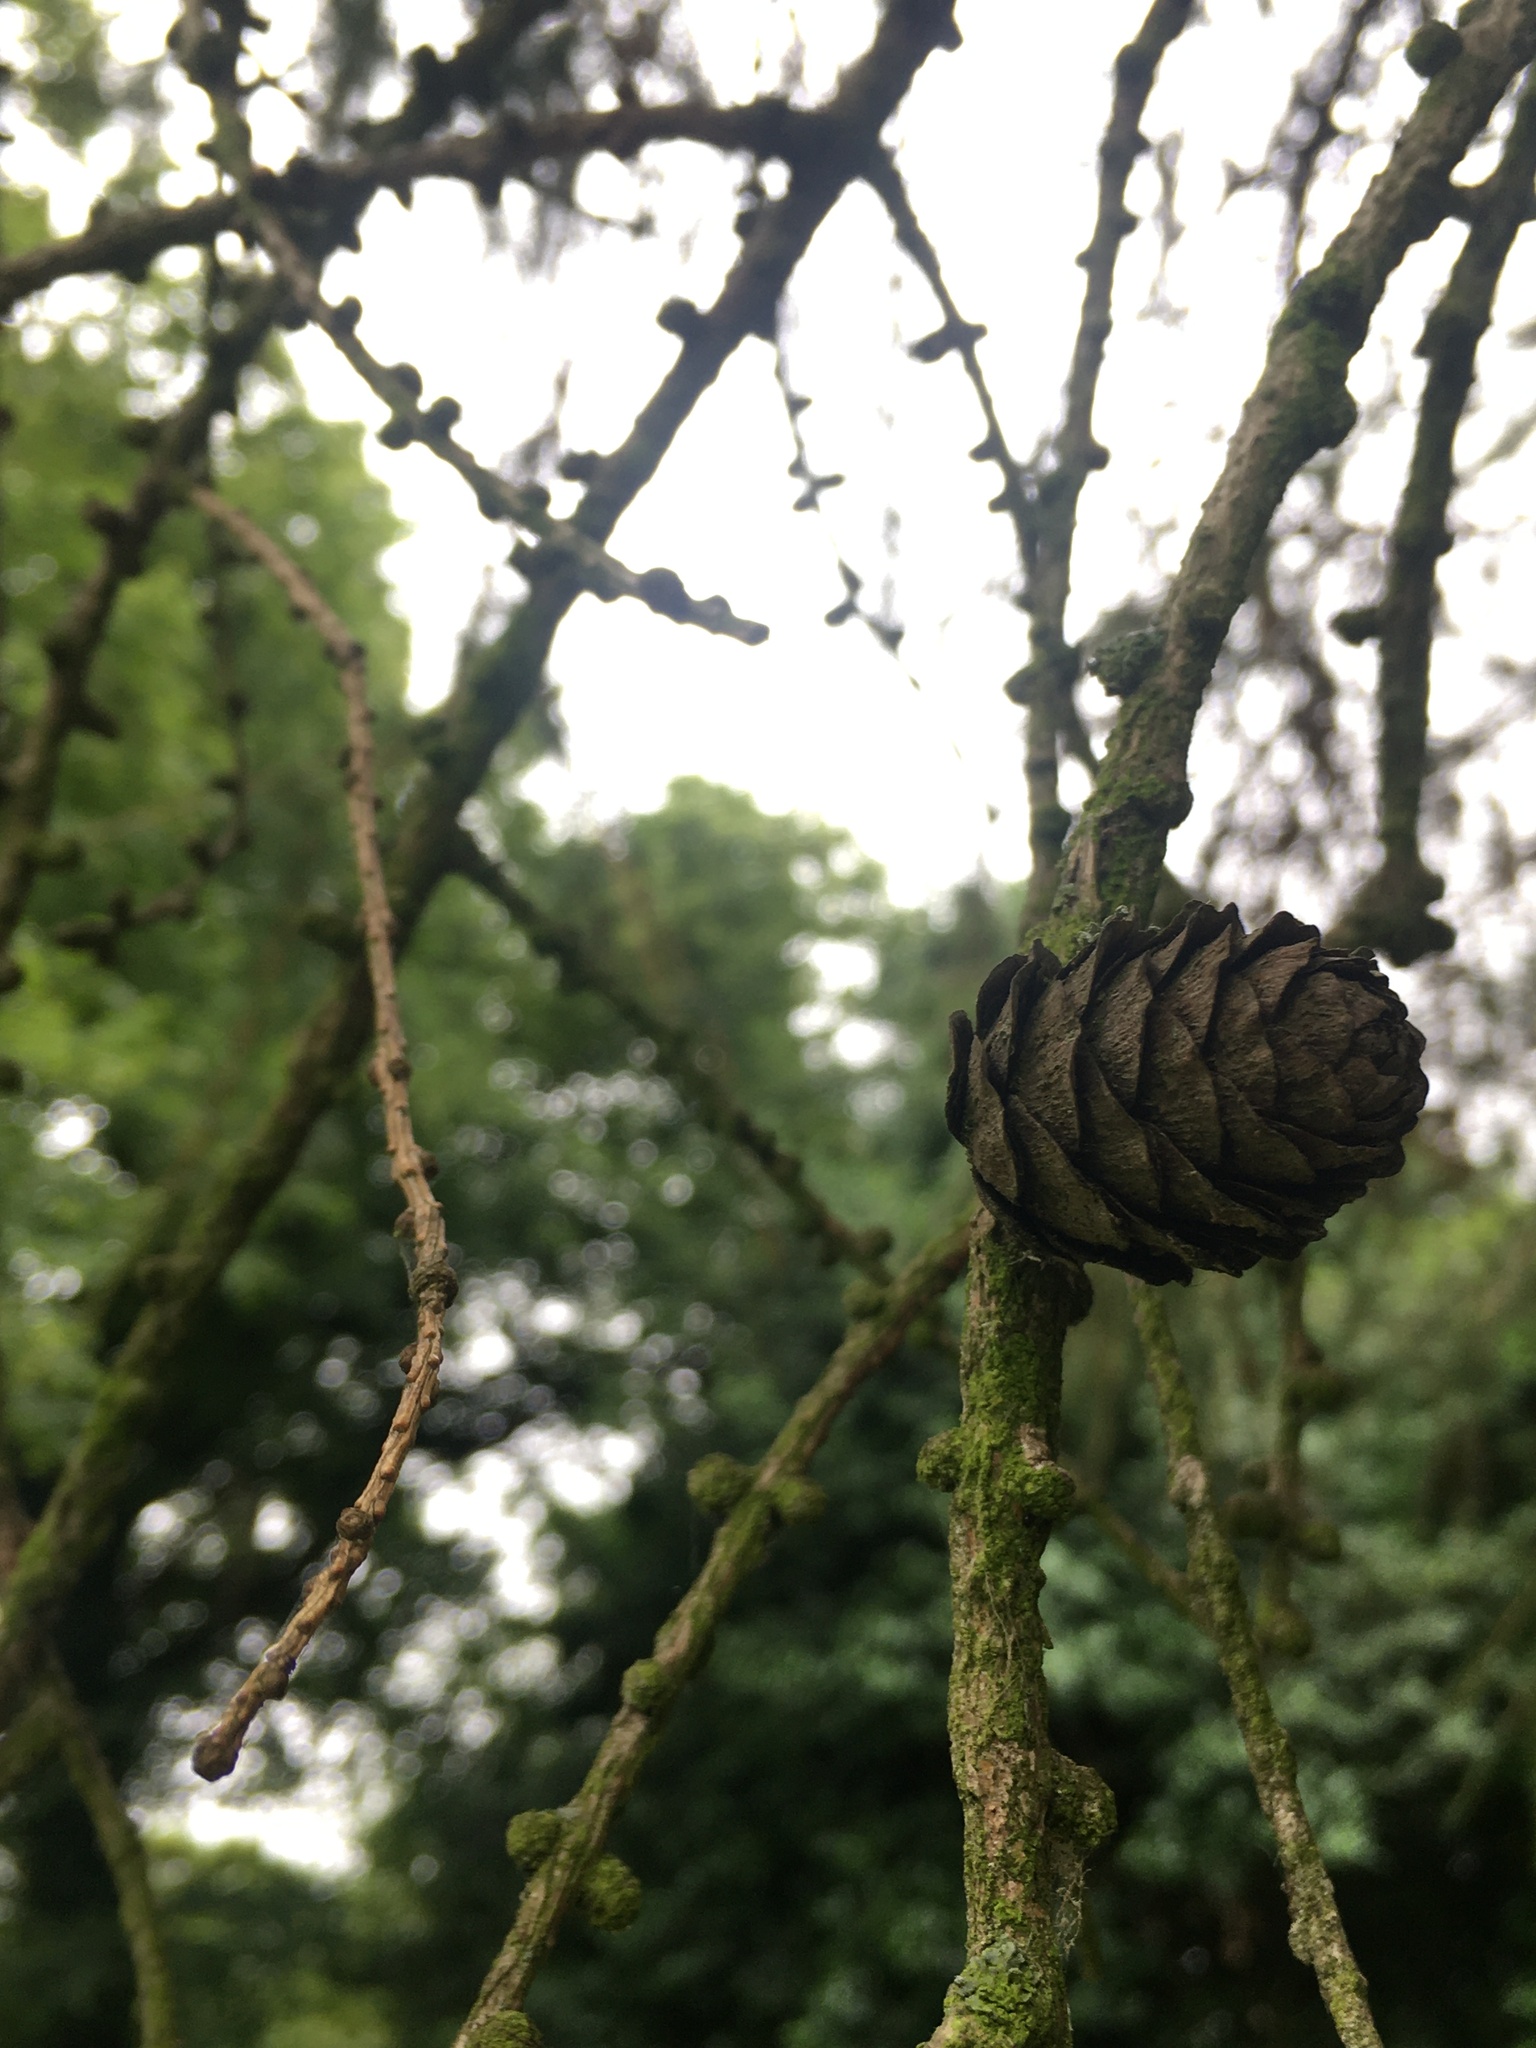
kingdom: Plantae
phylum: Tracheophyta
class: Pinopsida
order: Pinales
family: Pinaceae
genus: Larix
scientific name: Larix decidua
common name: European larch
